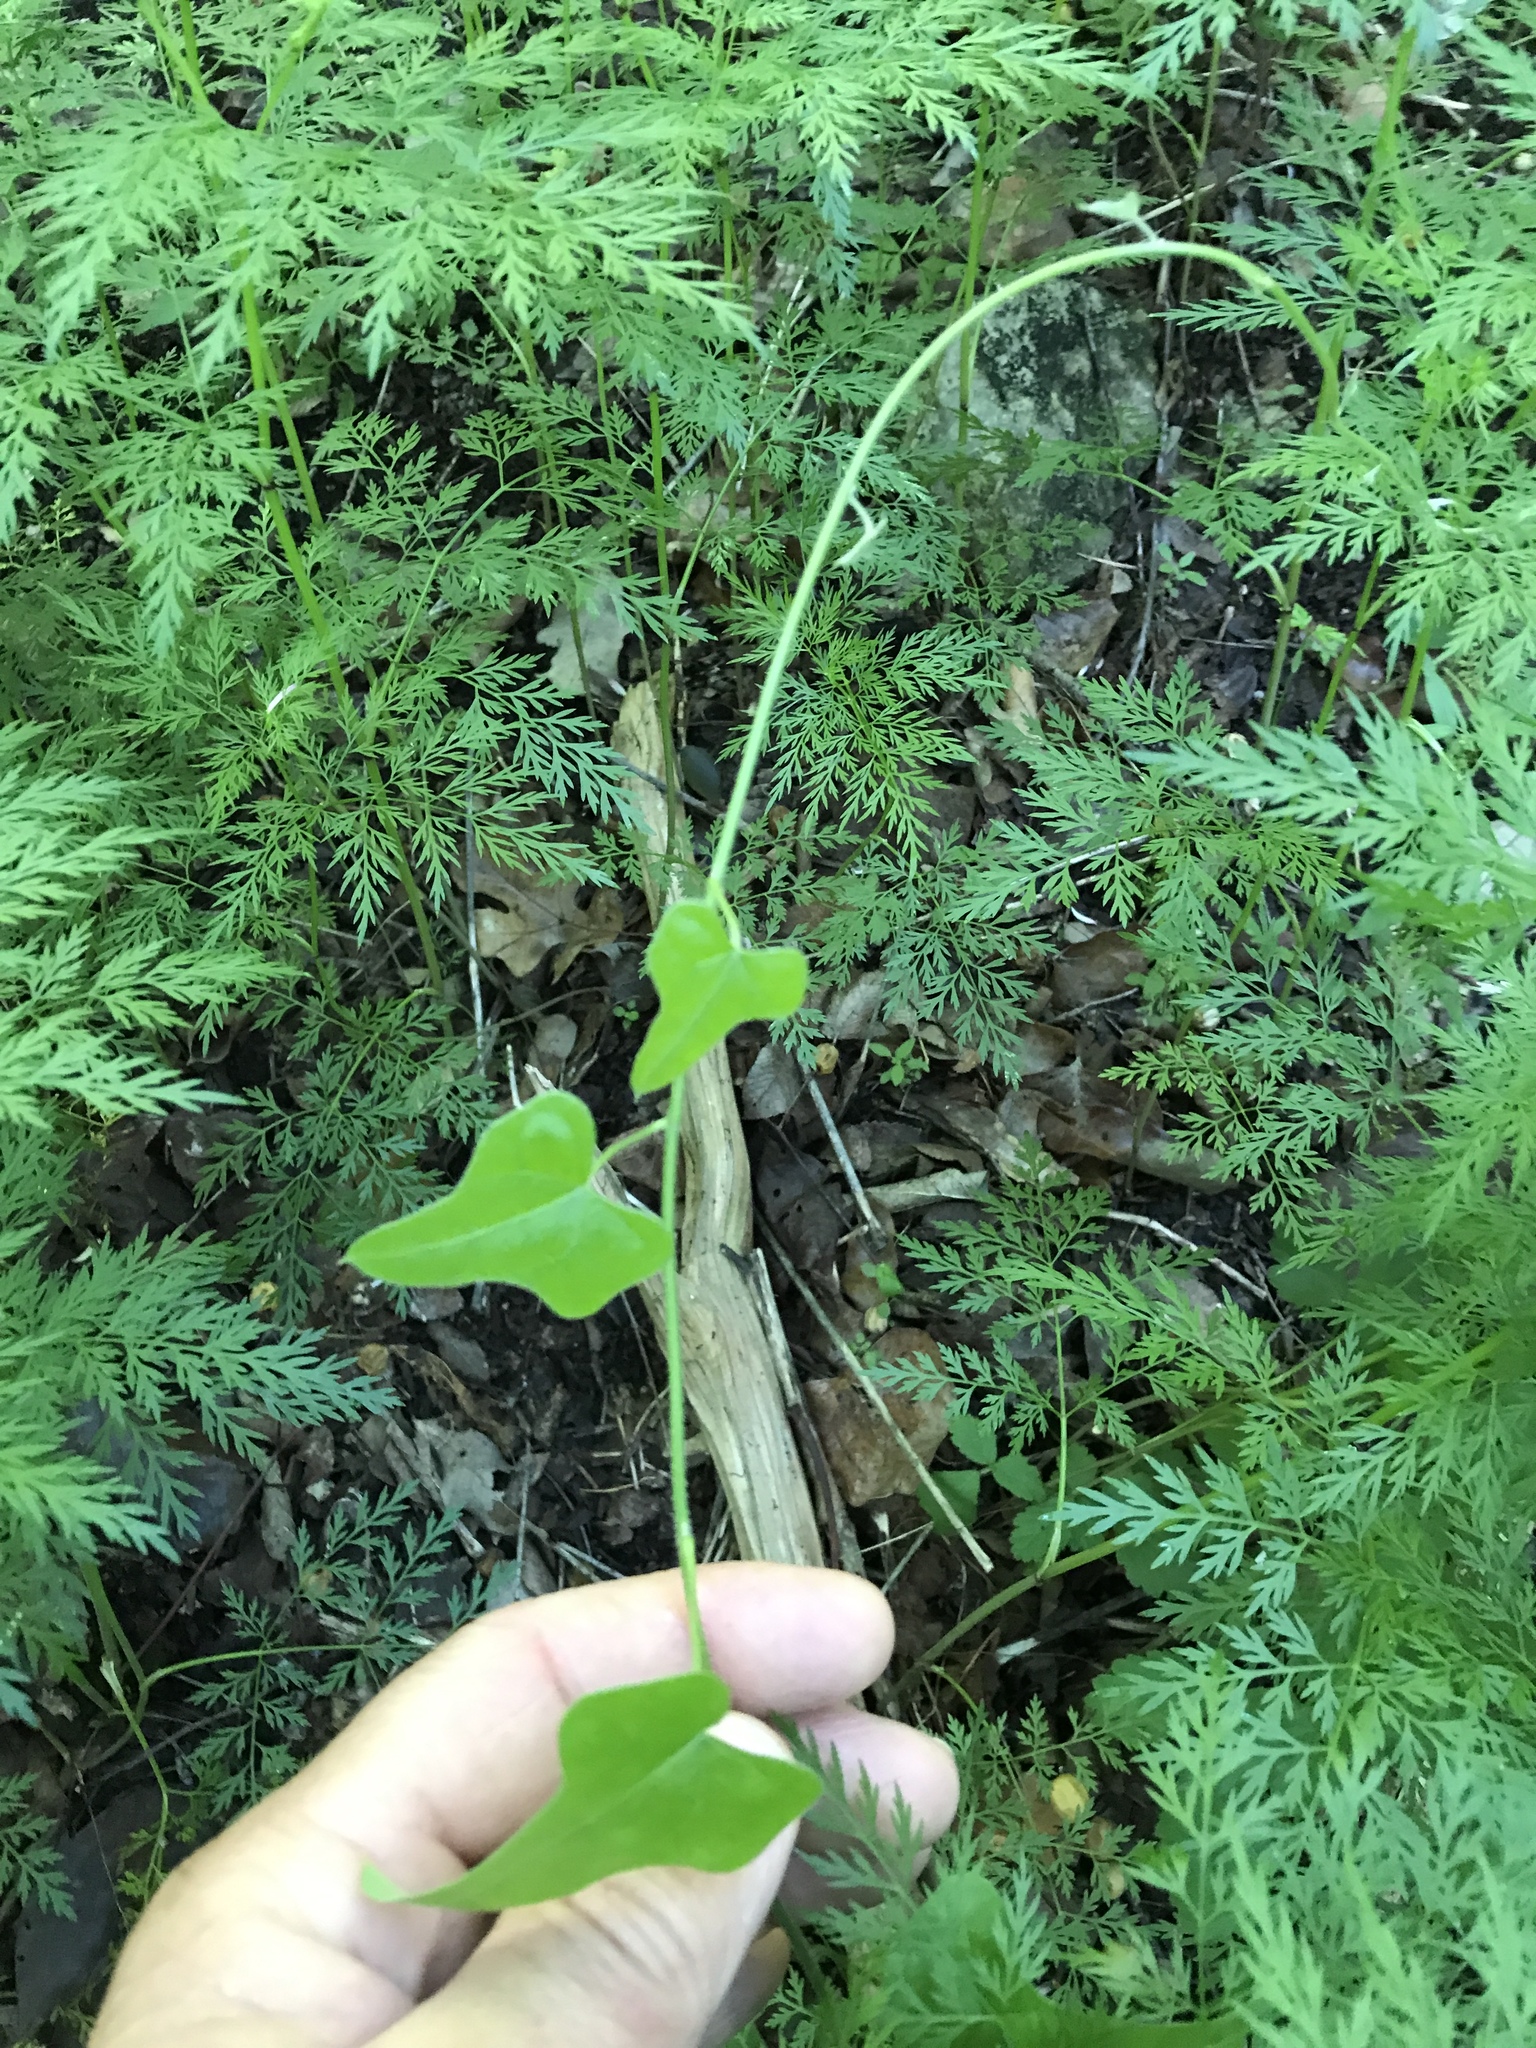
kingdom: Plantae
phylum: Tracheophyta
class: Magnoliopsida
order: Ranunculales
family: Menispermaceae
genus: Cocculus
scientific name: Cocculus carolinus
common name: Carolina moonseed
